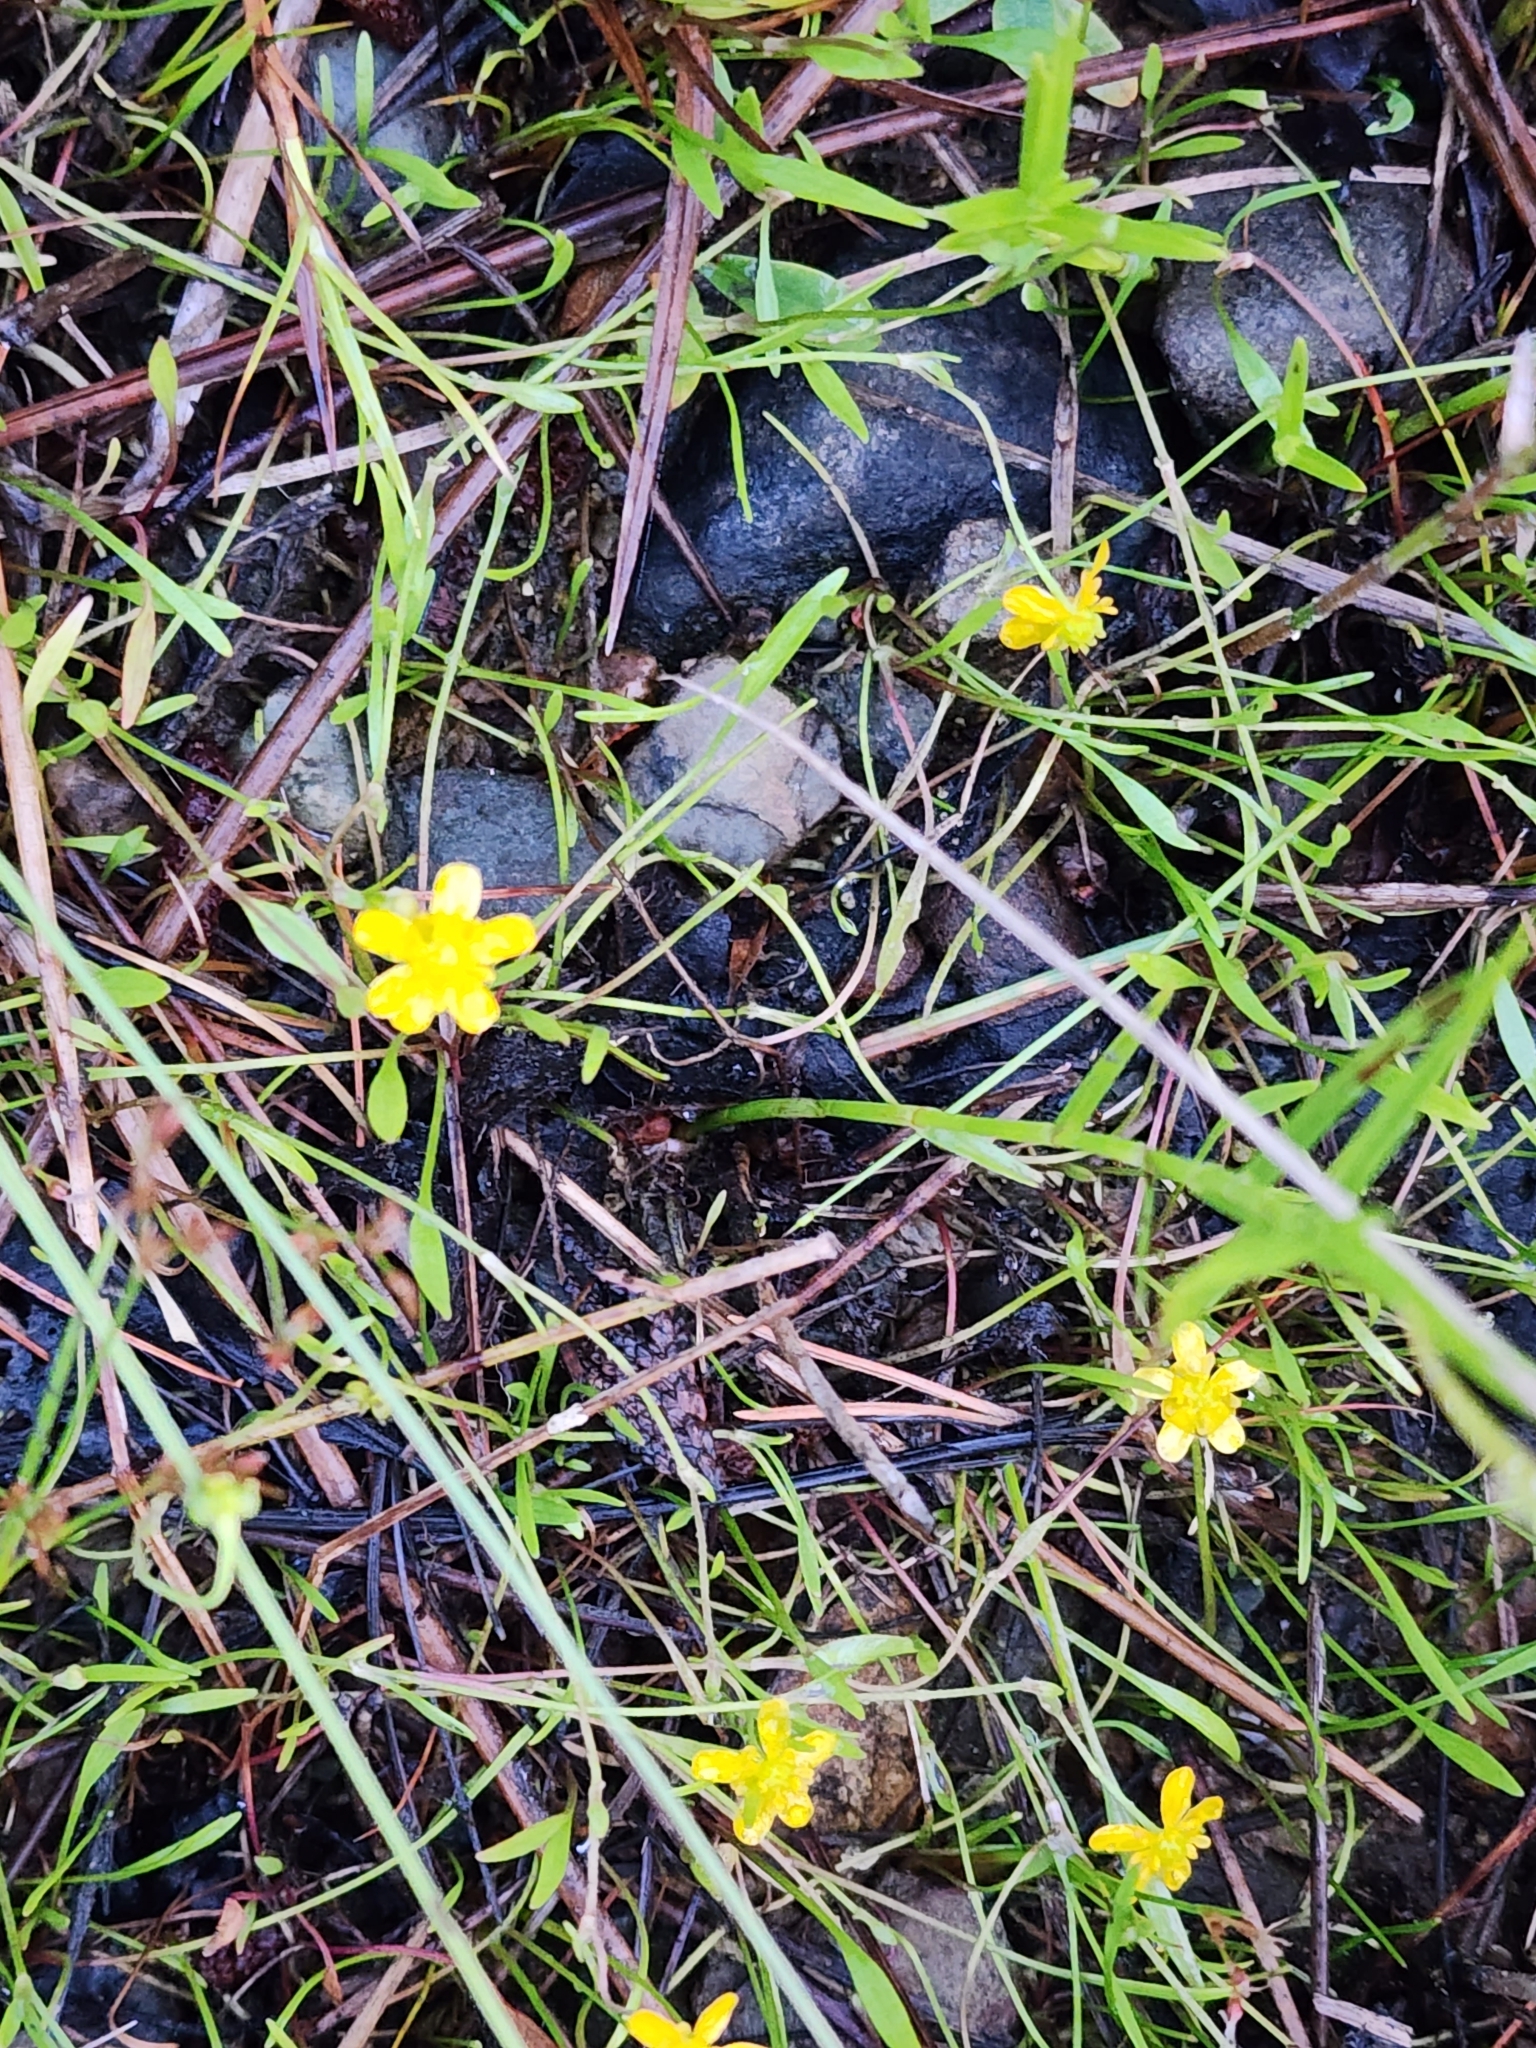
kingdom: Plantae
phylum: Tracheophyta
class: Magnoliopsida
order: Ranunculales
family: Ranunculaceae
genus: Ranunculus
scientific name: Ranunculus flammula
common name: Lesser spearwort
